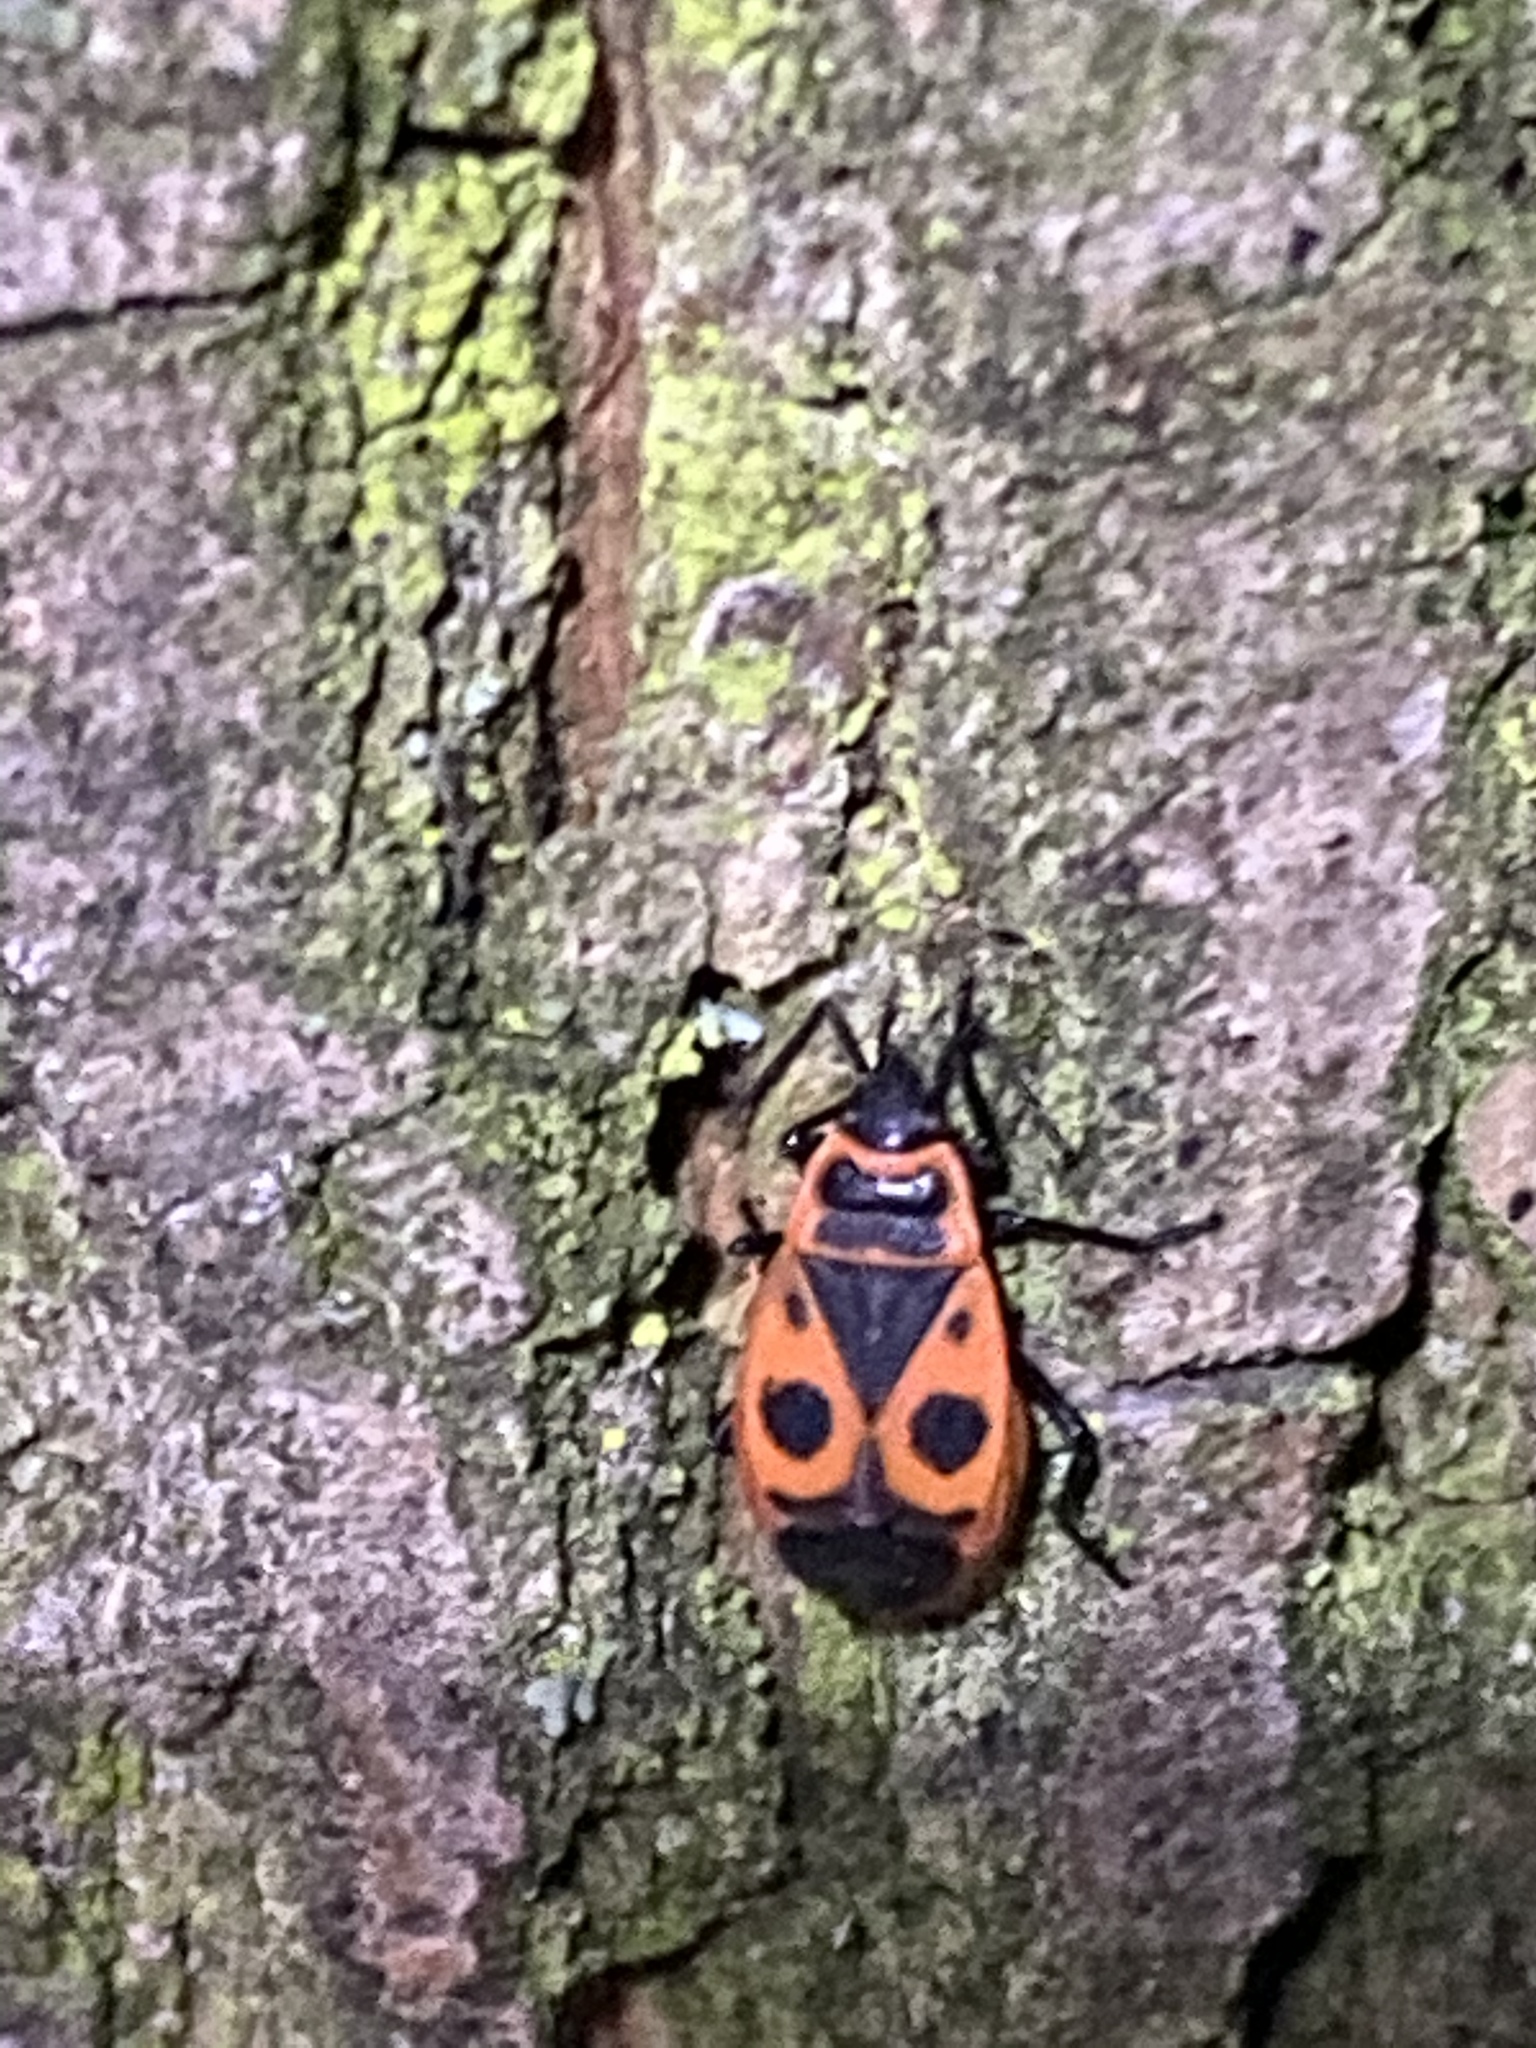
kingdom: Animalia
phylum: Arthropoda
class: Insecta
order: Hemiptera
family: Pyrrhocoridae
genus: Pyrrhocoris
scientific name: Pyrrhocoris apterus
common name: Firebug
